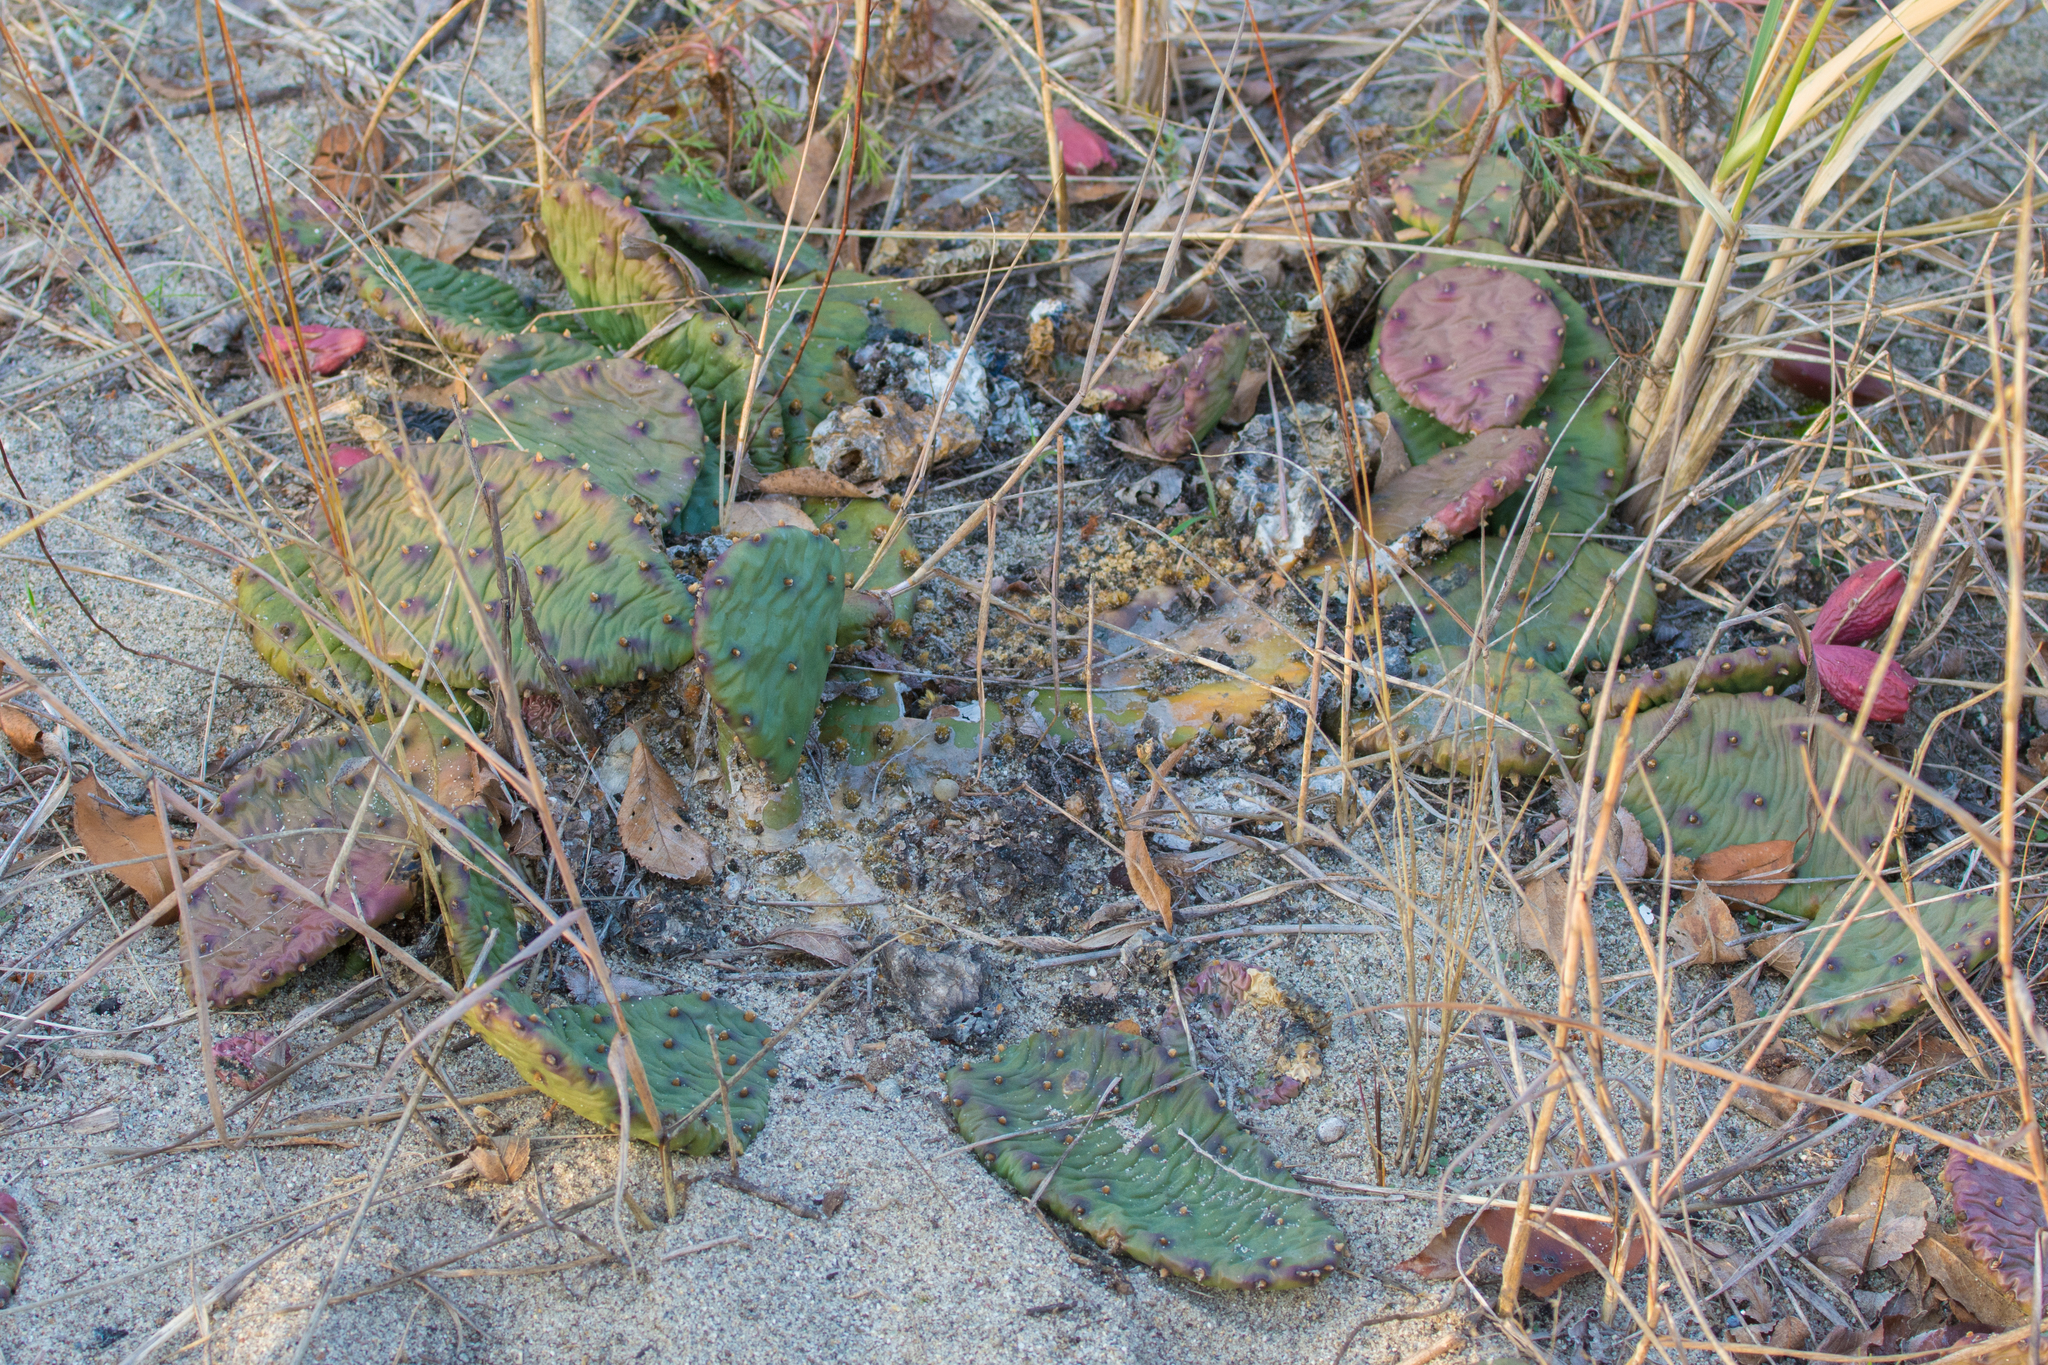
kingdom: Plantae
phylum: Tracheophyta
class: Magnoliopsida
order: Caryophyllales
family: Cactaceae
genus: Opuntia
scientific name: Opuntia humifusa
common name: Eastern prickly-pear
